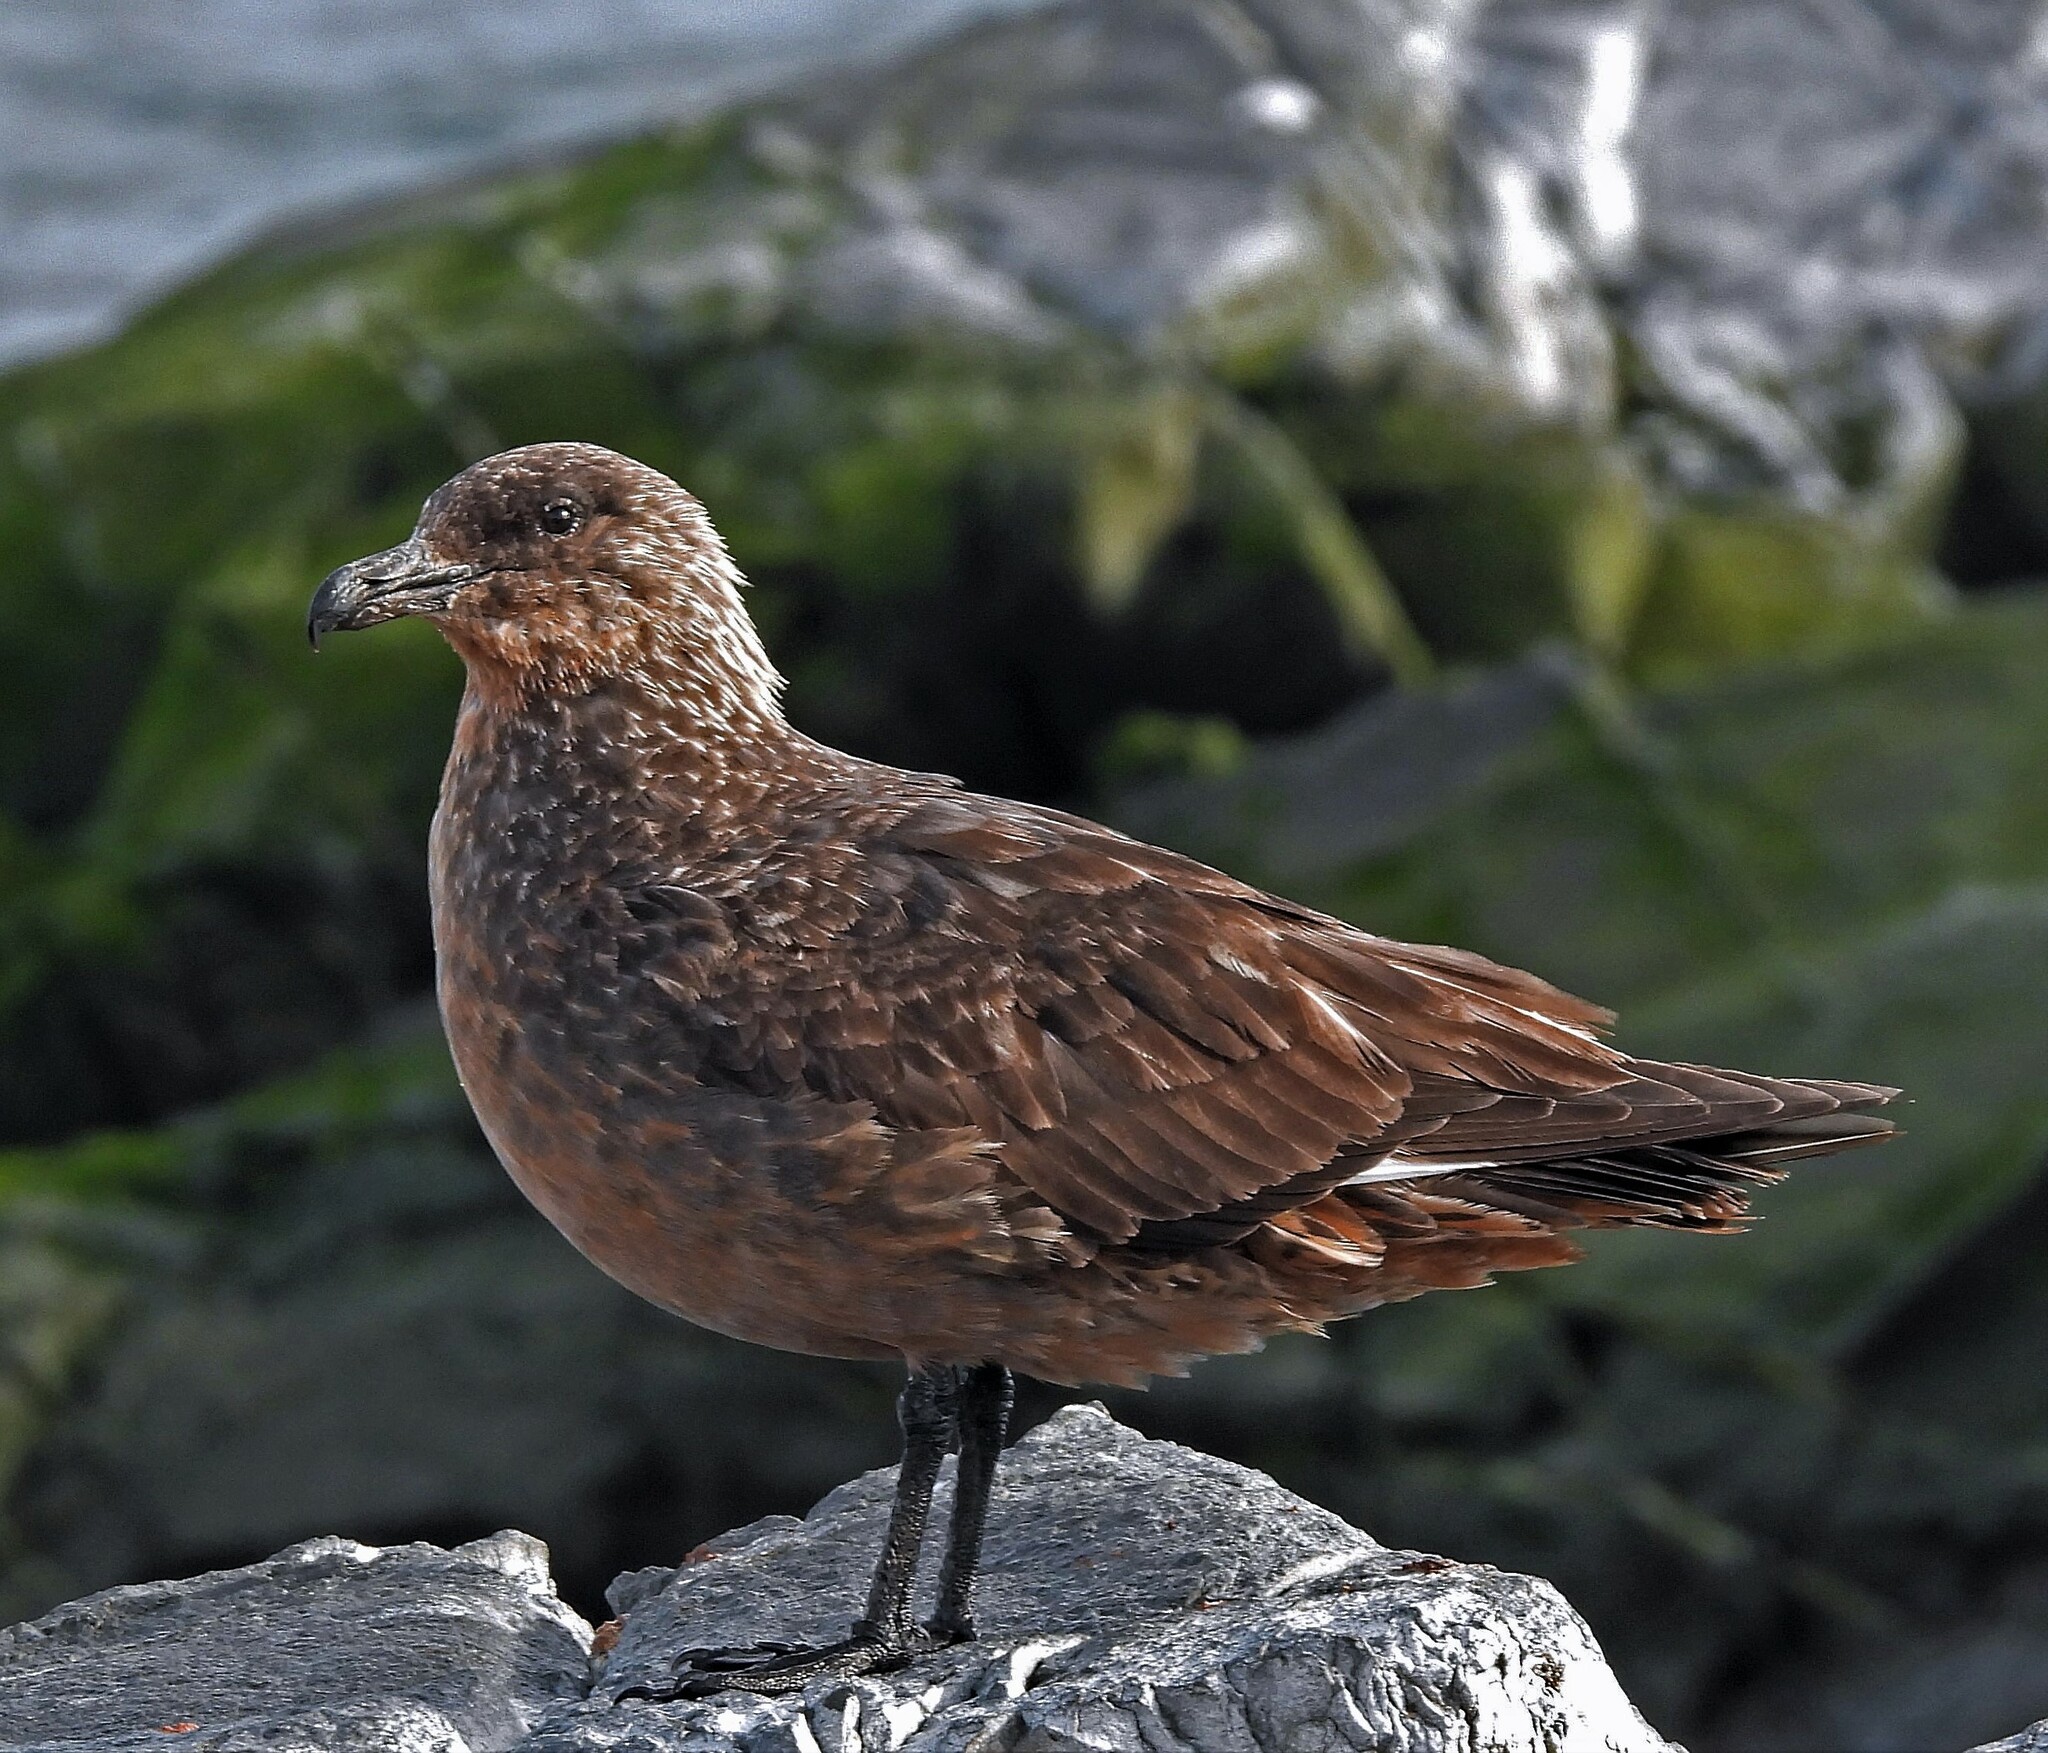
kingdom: Animalia
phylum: Chordata
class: Aves
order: Charadriiformes
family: Stercorariidae
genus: Stercorarius
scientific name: Stercorarius chilensis
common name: Chilean skua
